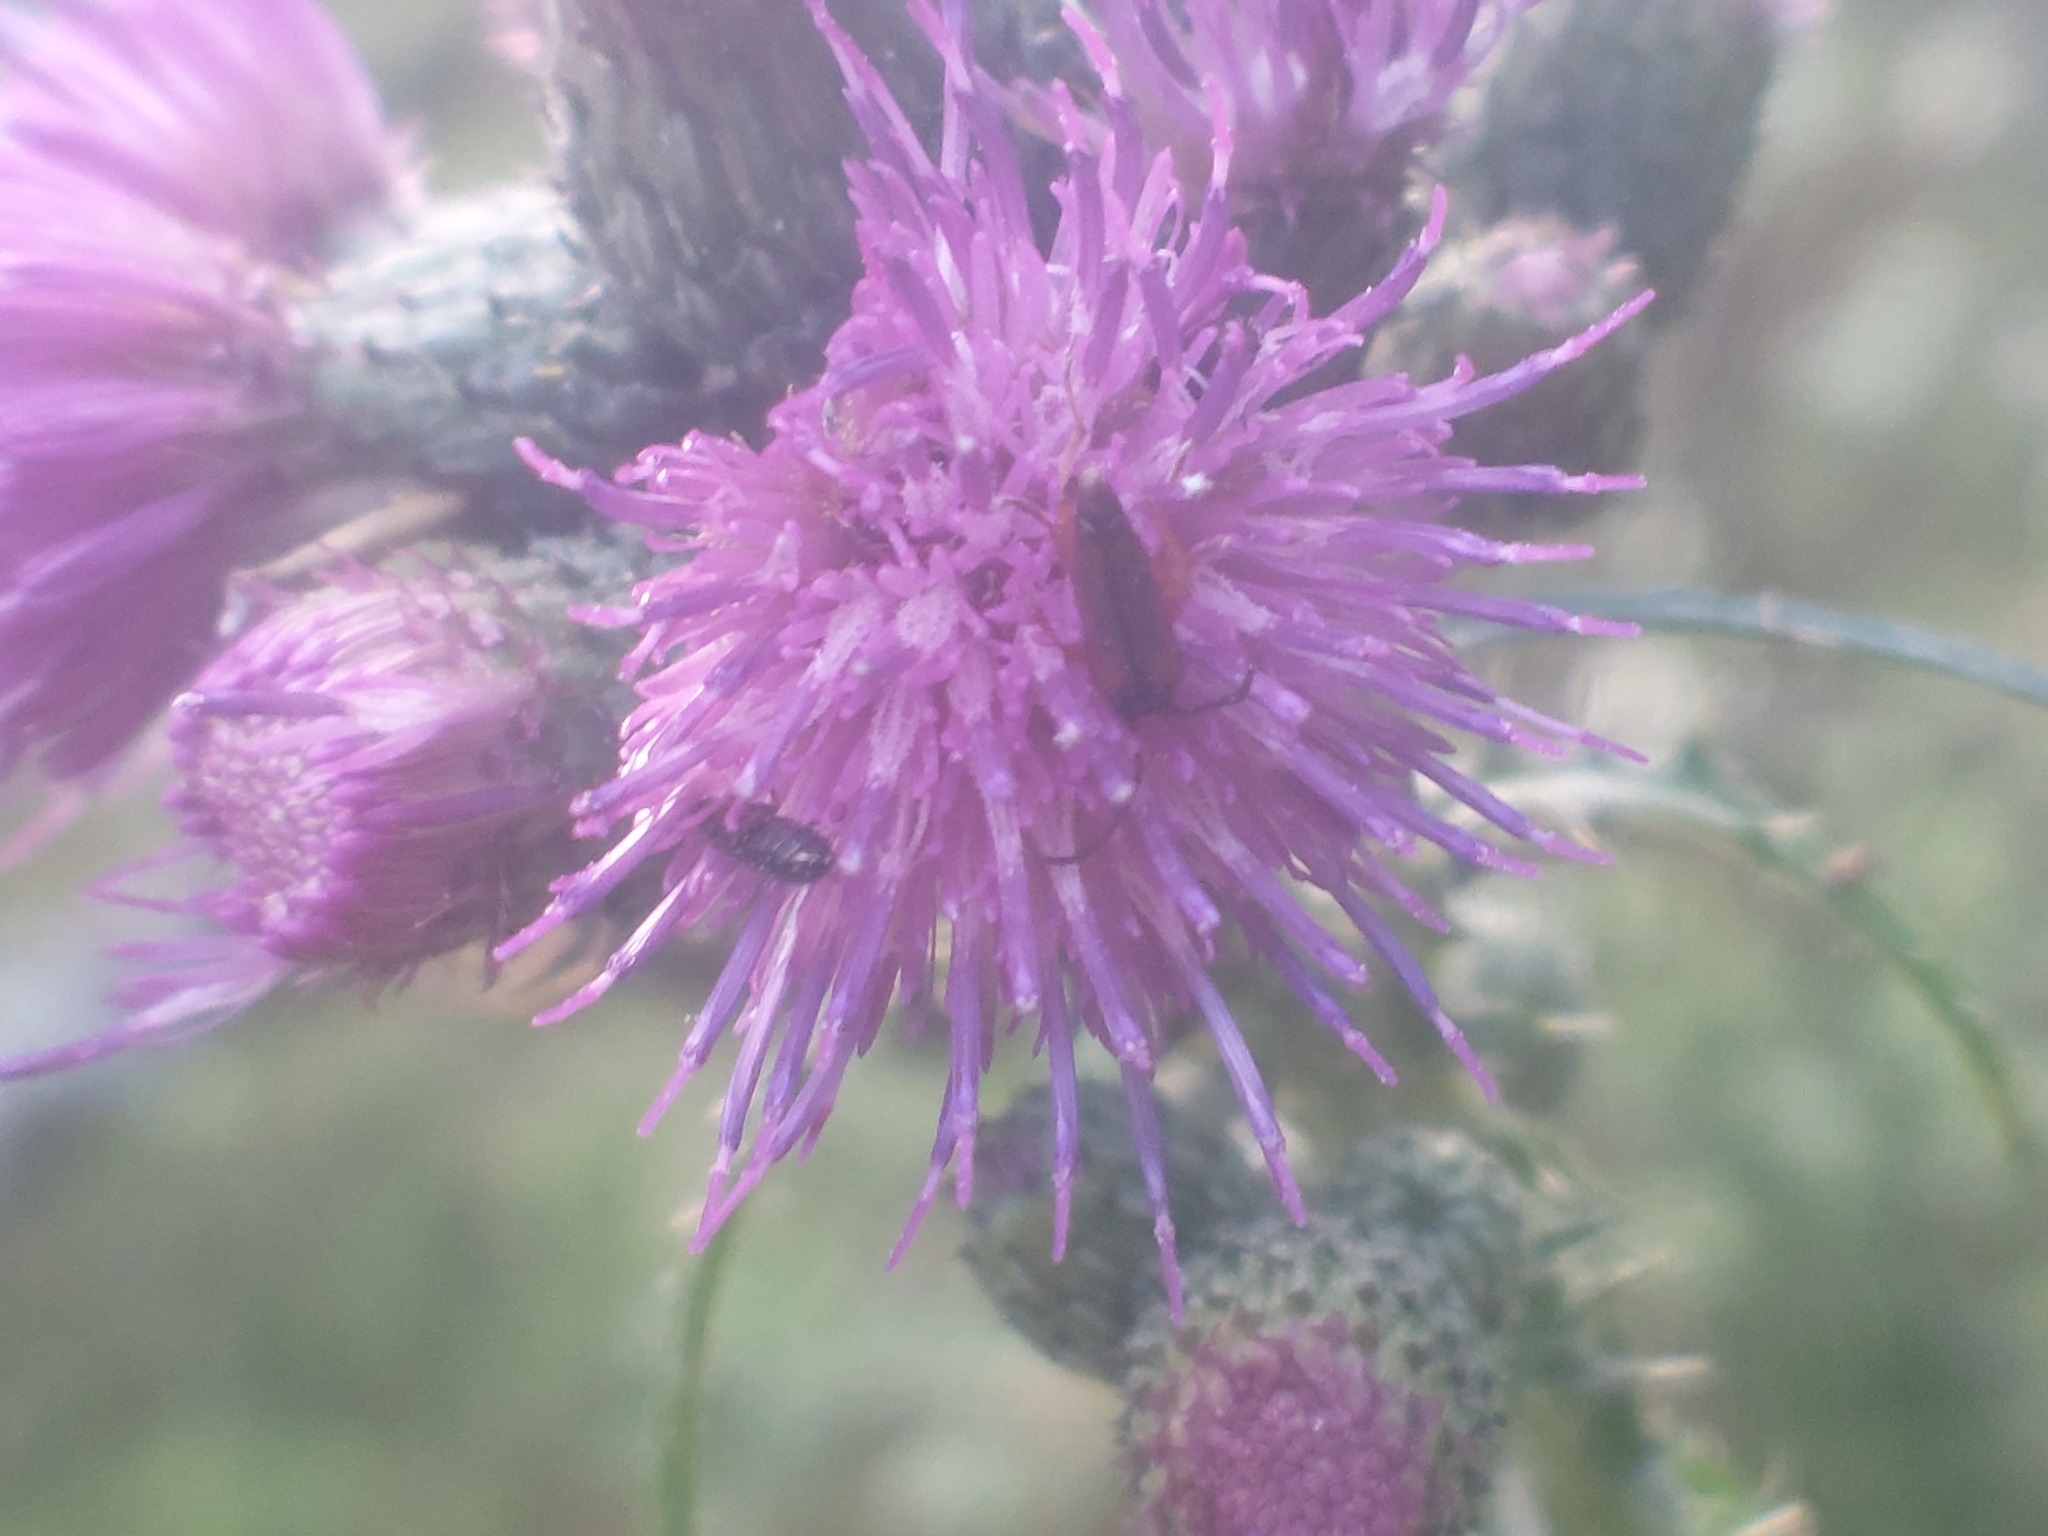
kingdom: Animalia
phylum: Arthropoda
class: Insecta
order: Coleoptera
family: Cerambycidae
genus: Alosterna
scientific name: Alosterna tabacicolor
